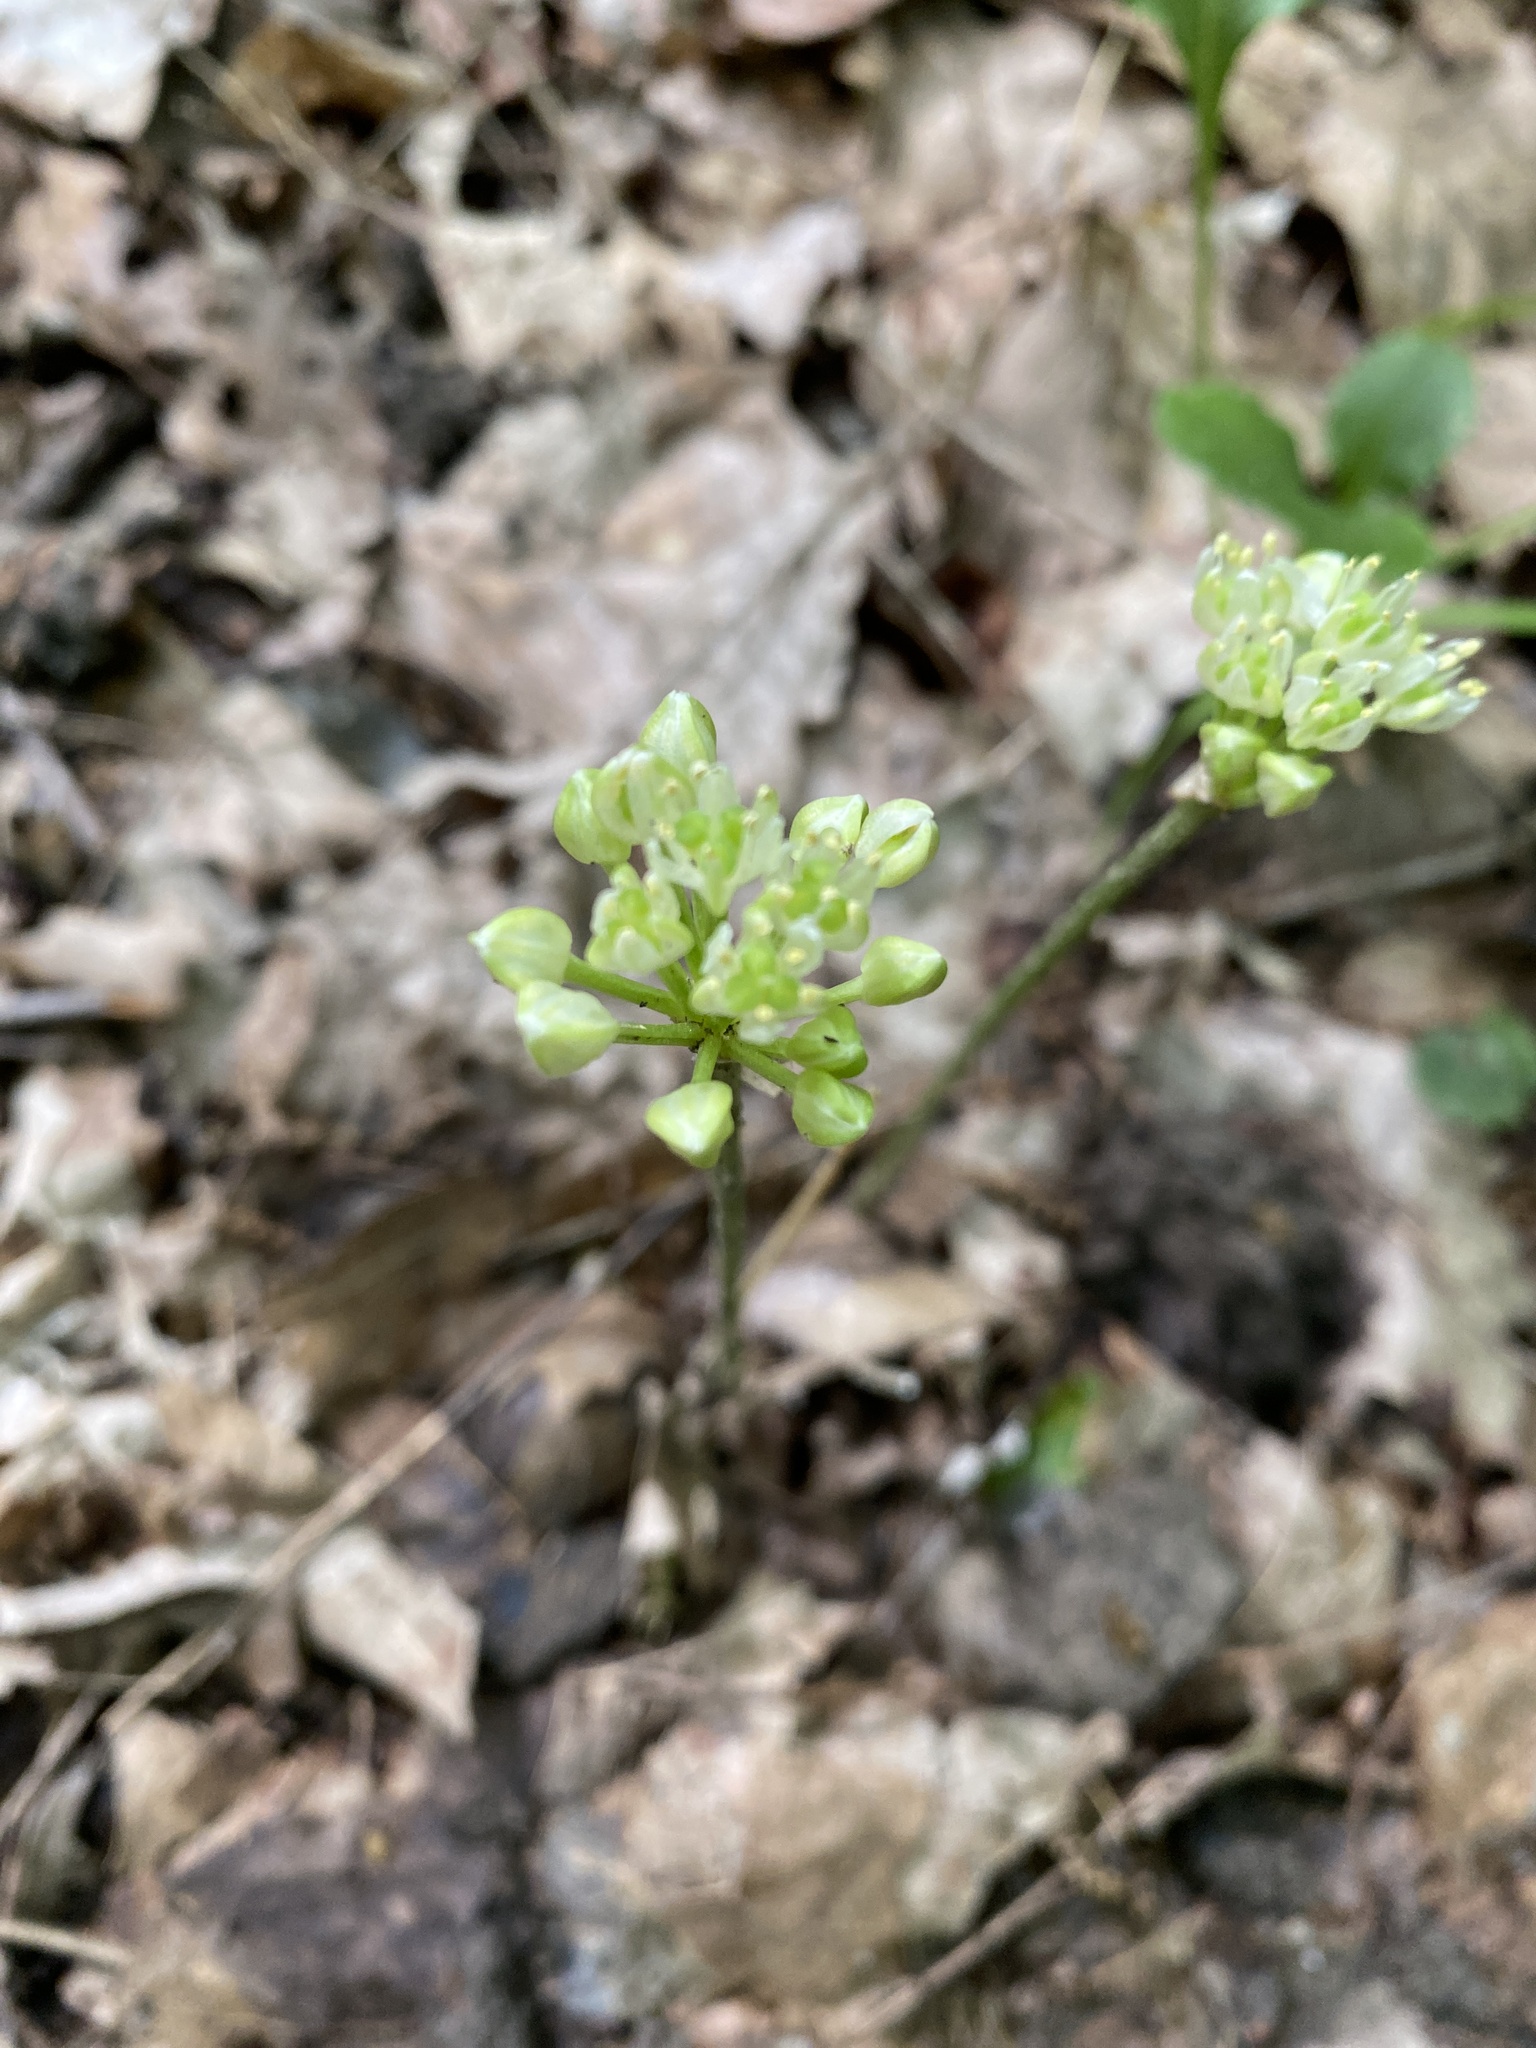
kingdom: Plantae
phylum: Tracheophyta
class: Liliopsida
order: Asparagales
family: Amaryllidaceae
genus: Allium
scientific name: Allium tricoccum
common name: Ramp
